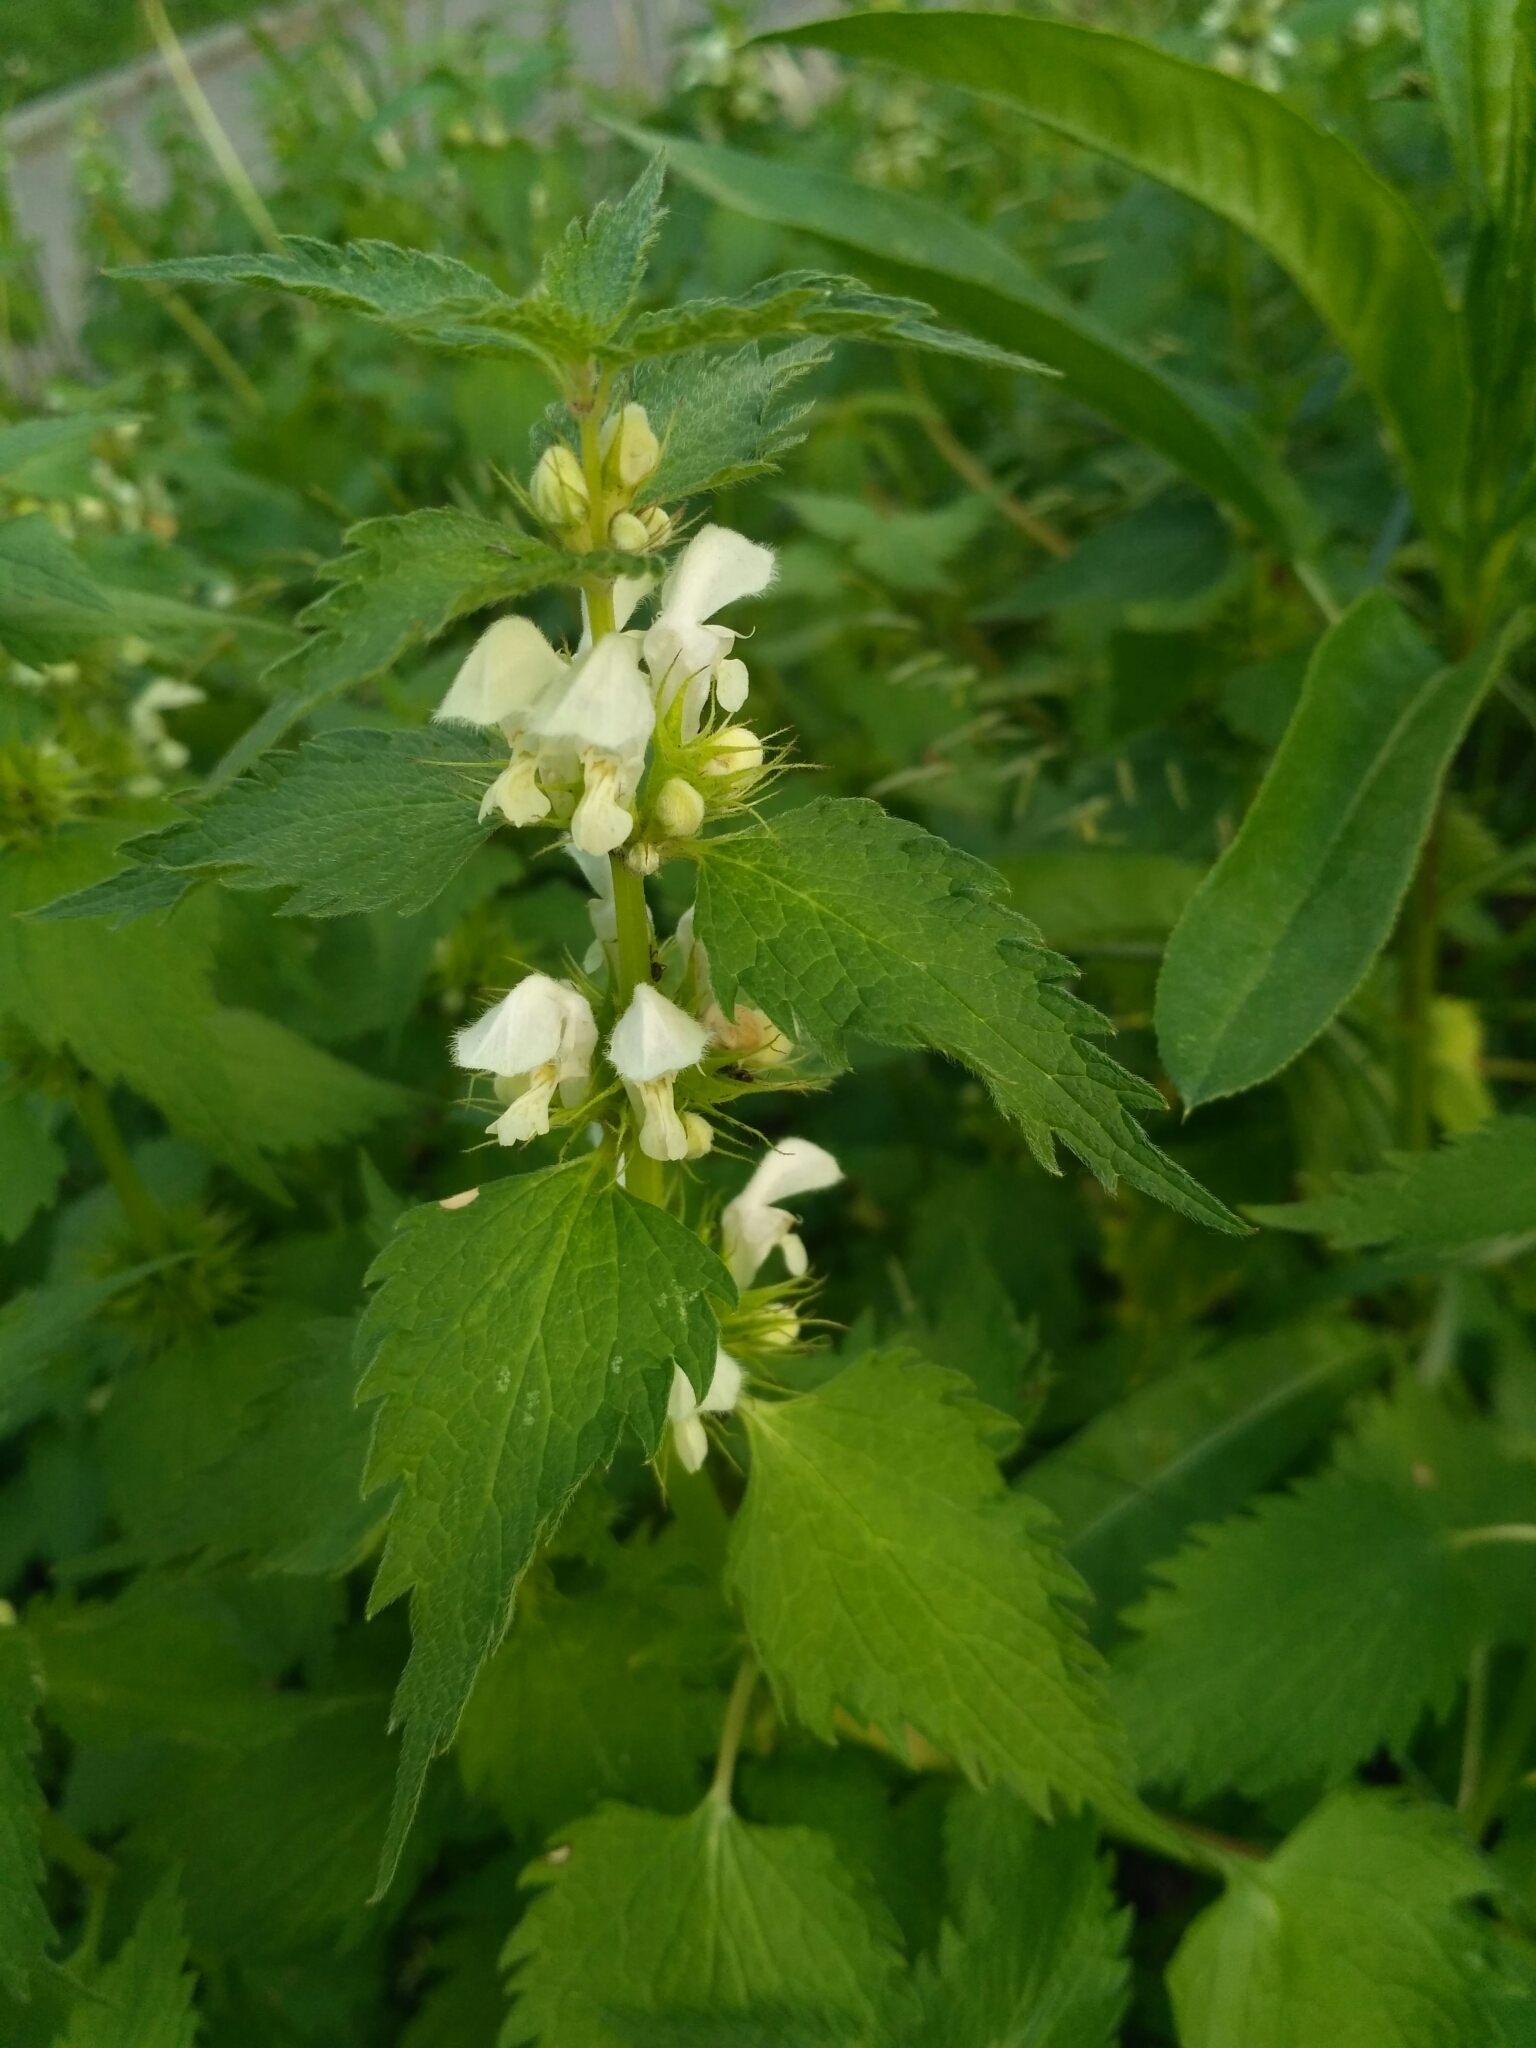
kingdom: Plantae
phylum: Tracheophyta
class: Magnoliopsida
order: Lamiales
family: Lamiaceae
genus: Lamium
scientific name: Lamium album
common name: White dead-nettle
